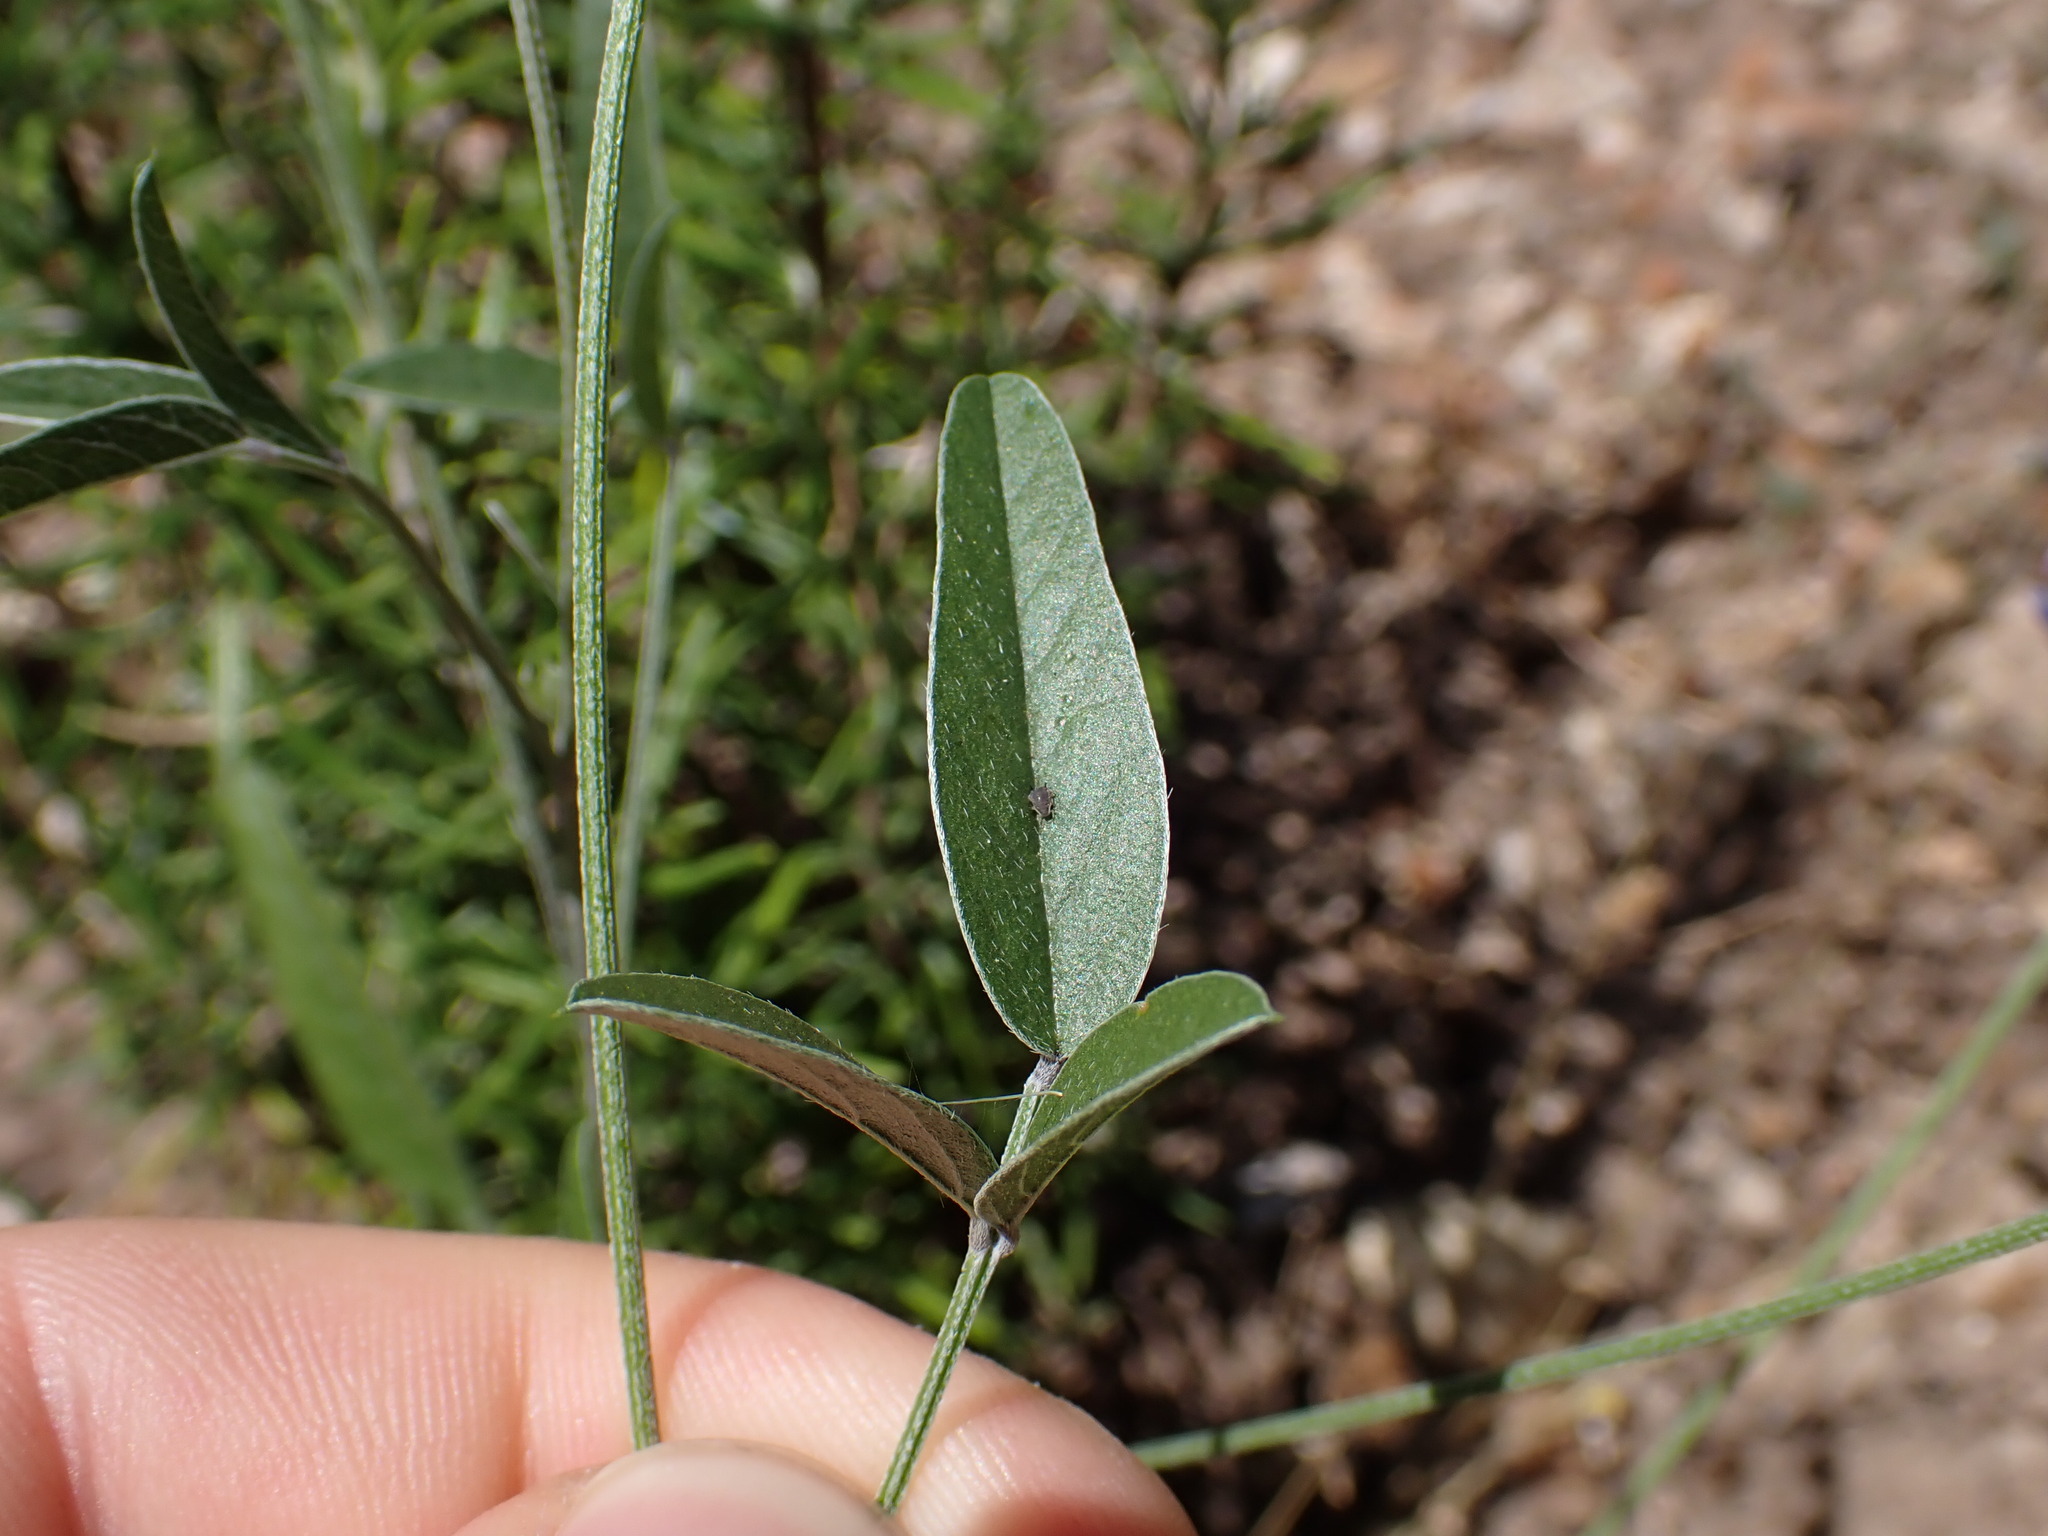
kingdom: Plantae
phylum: Tracheophyta
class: Magnoliopsida
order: Fabales
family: Fabaceae
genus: Bituminaria
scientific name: Bituminaria bituminosa
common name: Arabian pea
